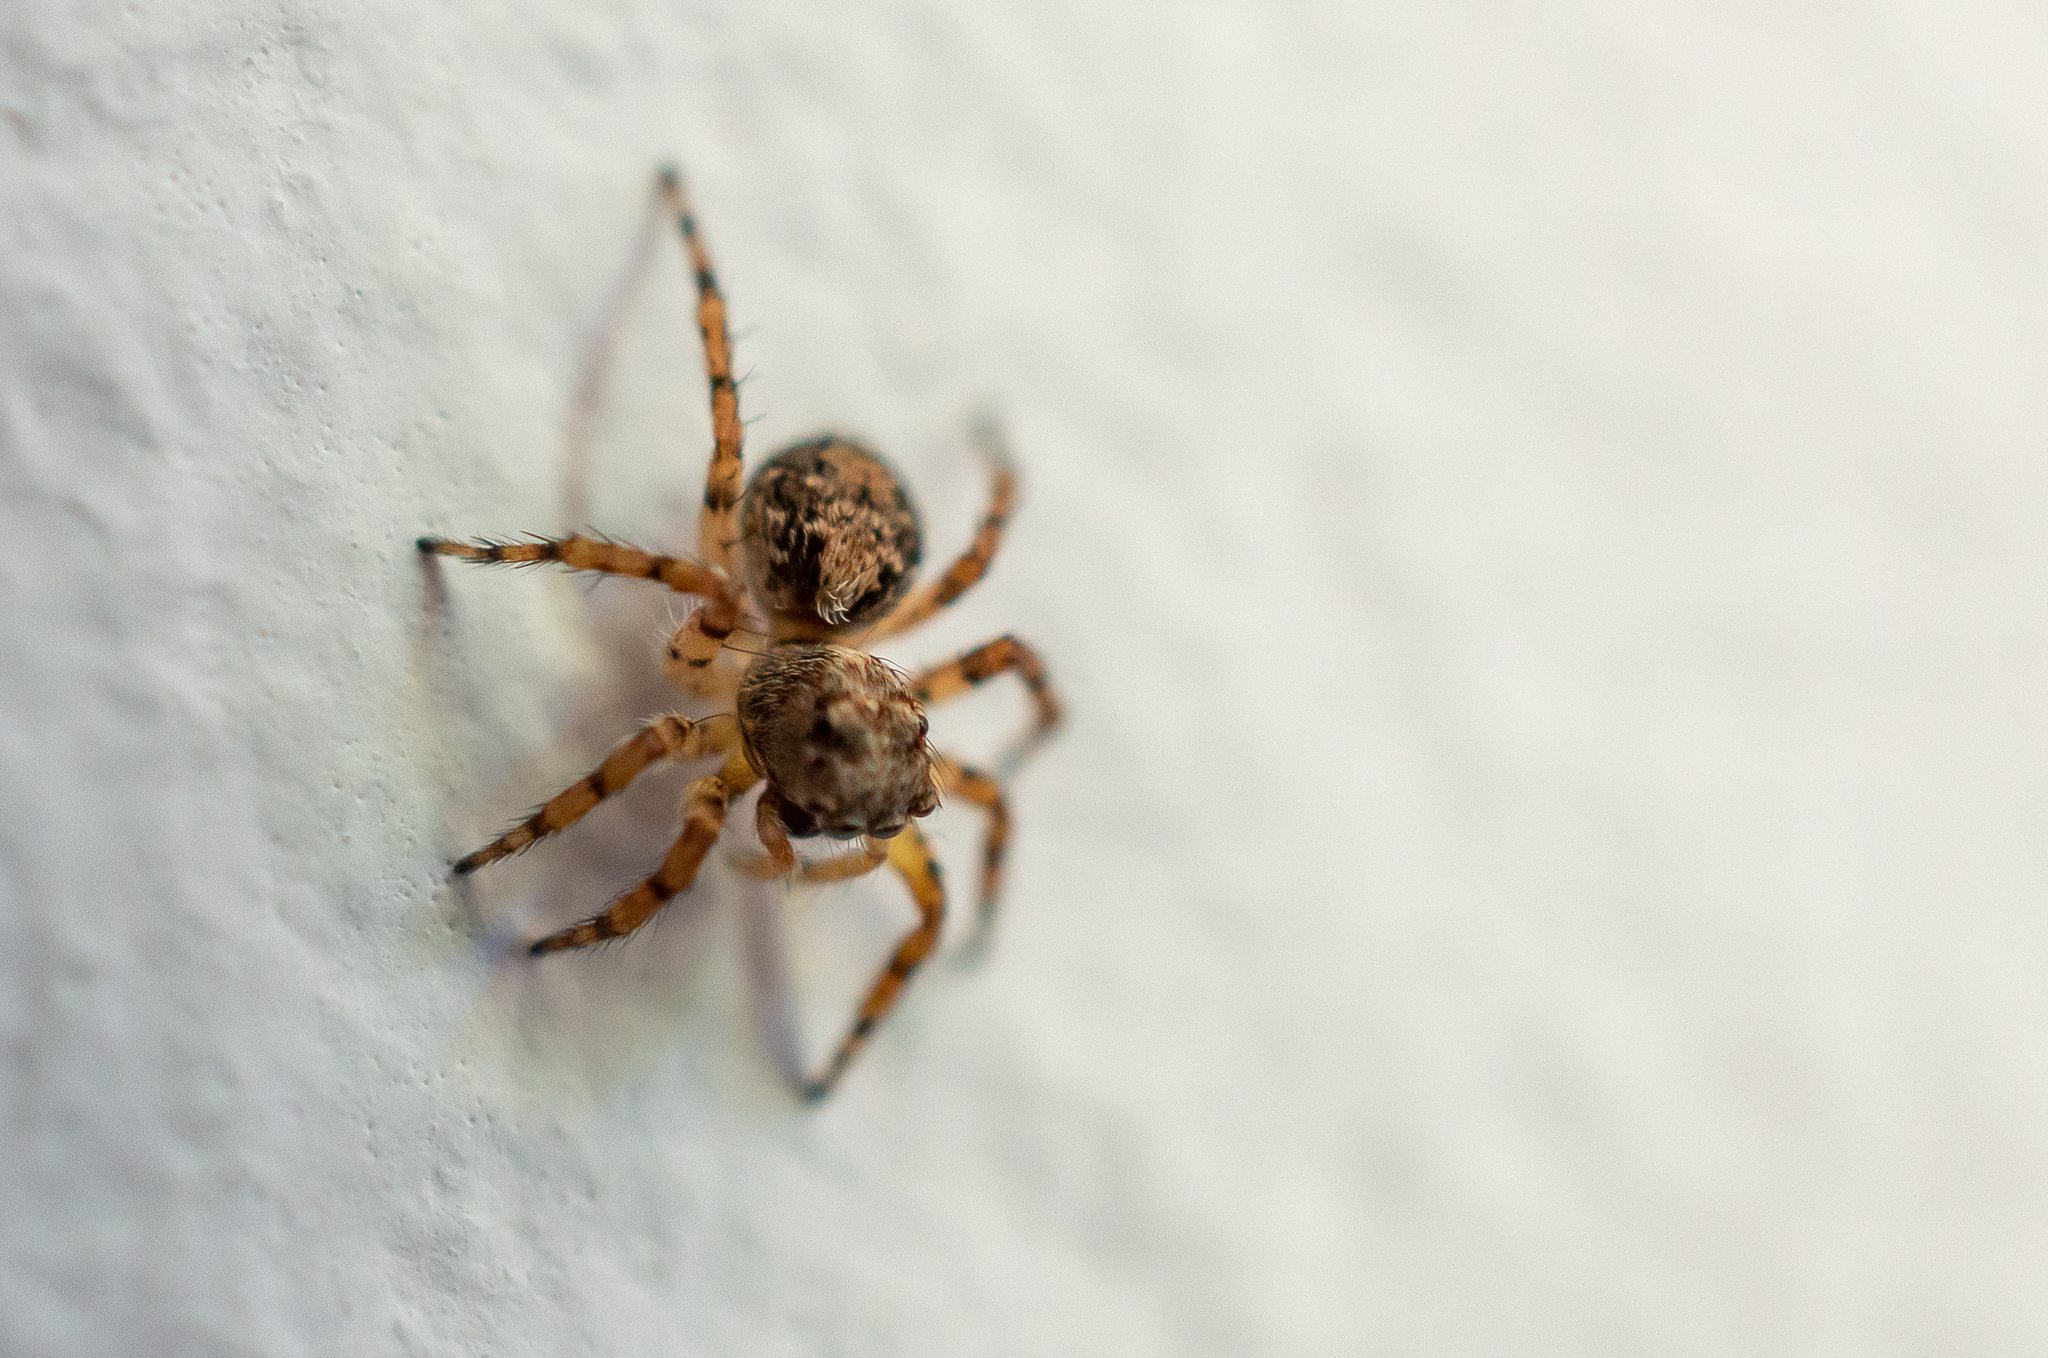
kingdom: Animalia
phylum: Arthropoda
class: Arachnida
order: Araneae
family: Salticidae
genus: Marma
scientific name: Marma nigritarsis
